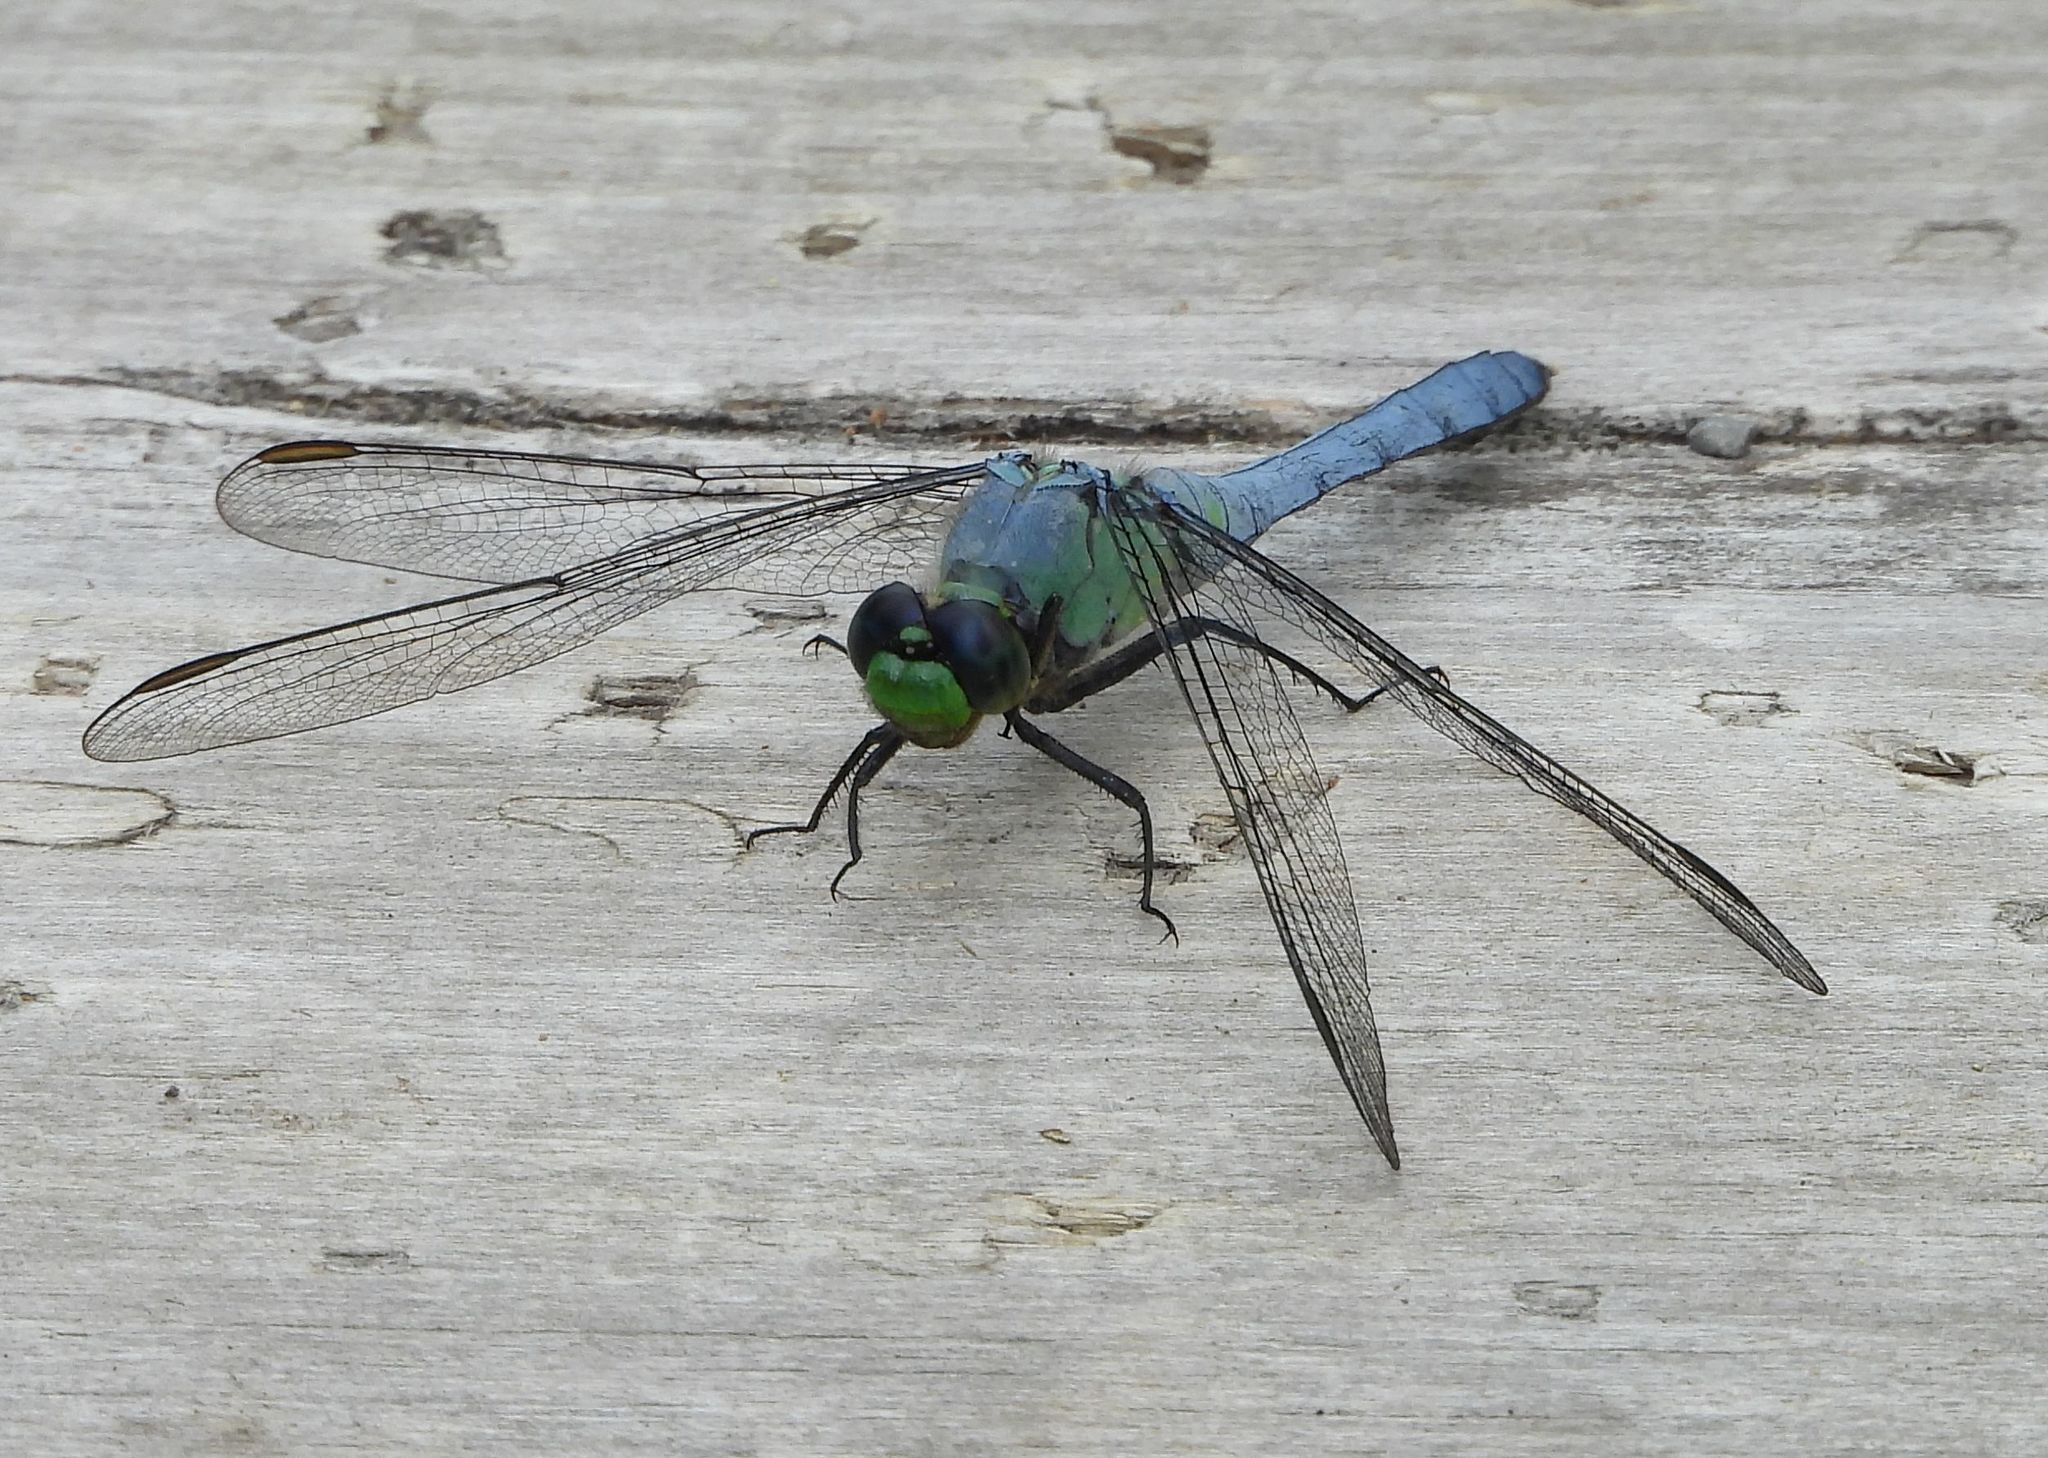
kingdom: Animalia
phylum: Arthropoda
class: Insecta
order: Odonata
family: Libellulidae
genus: Erythemis
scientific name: Erythemis simplicicollis
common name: Eastern pondhawk
